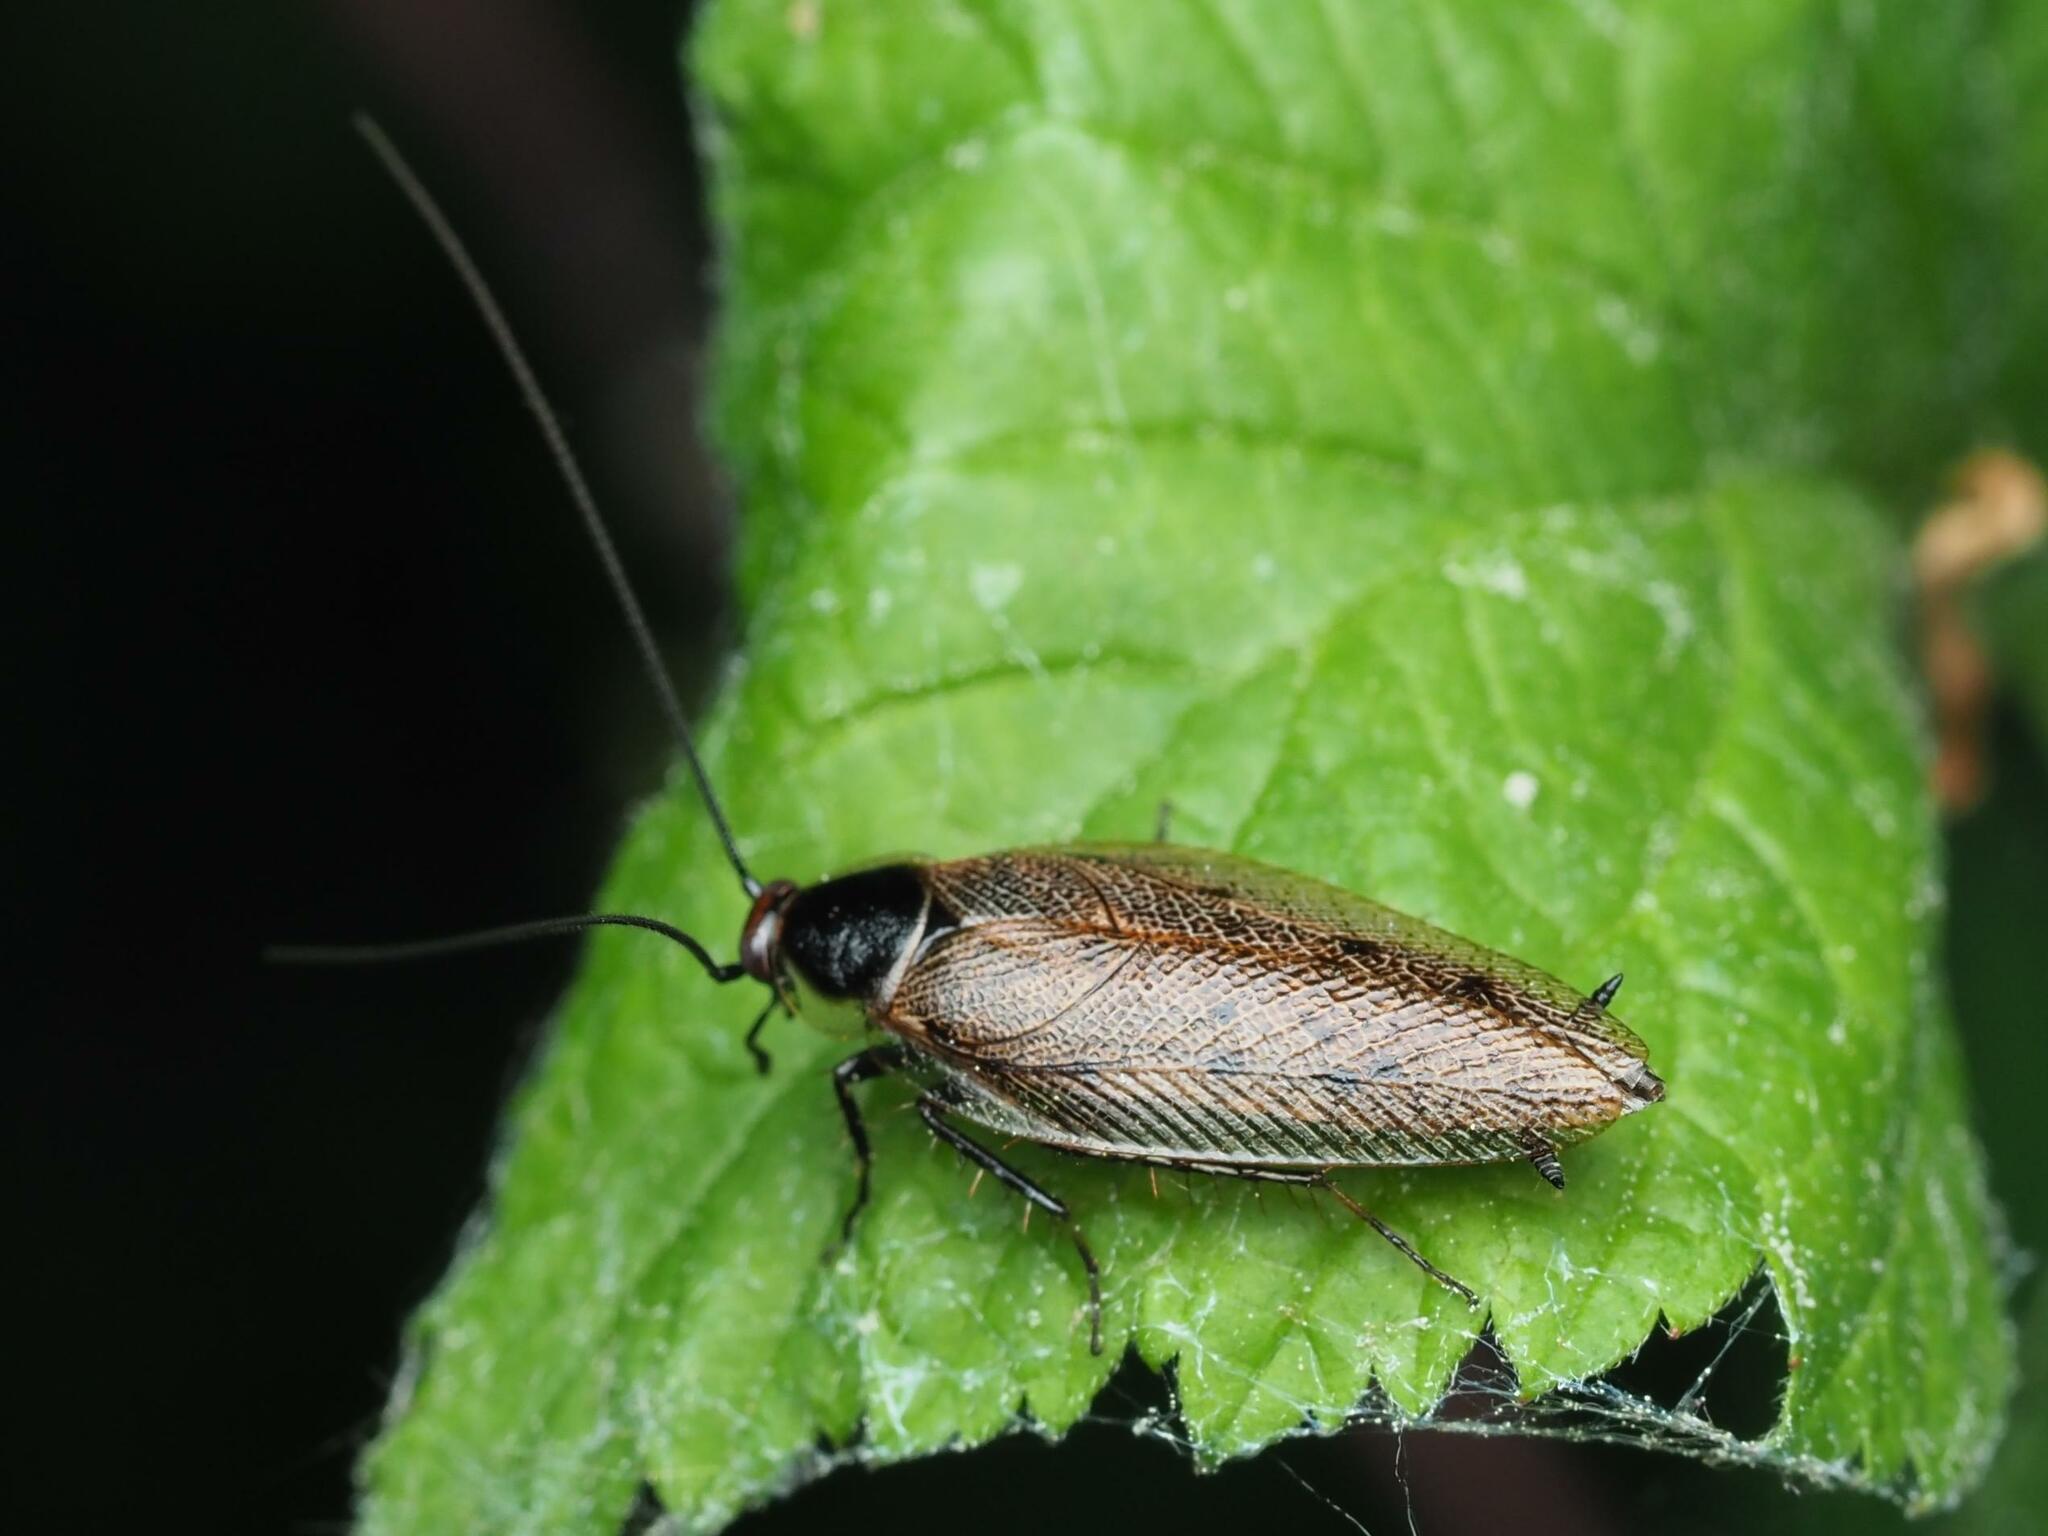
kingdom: Animalia
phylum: Arthropoda
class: Insecta
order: Blattodea
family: Ectobiidae
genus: Ectobius
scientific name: Ectobius lapponicus
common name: Dusky cockroach
